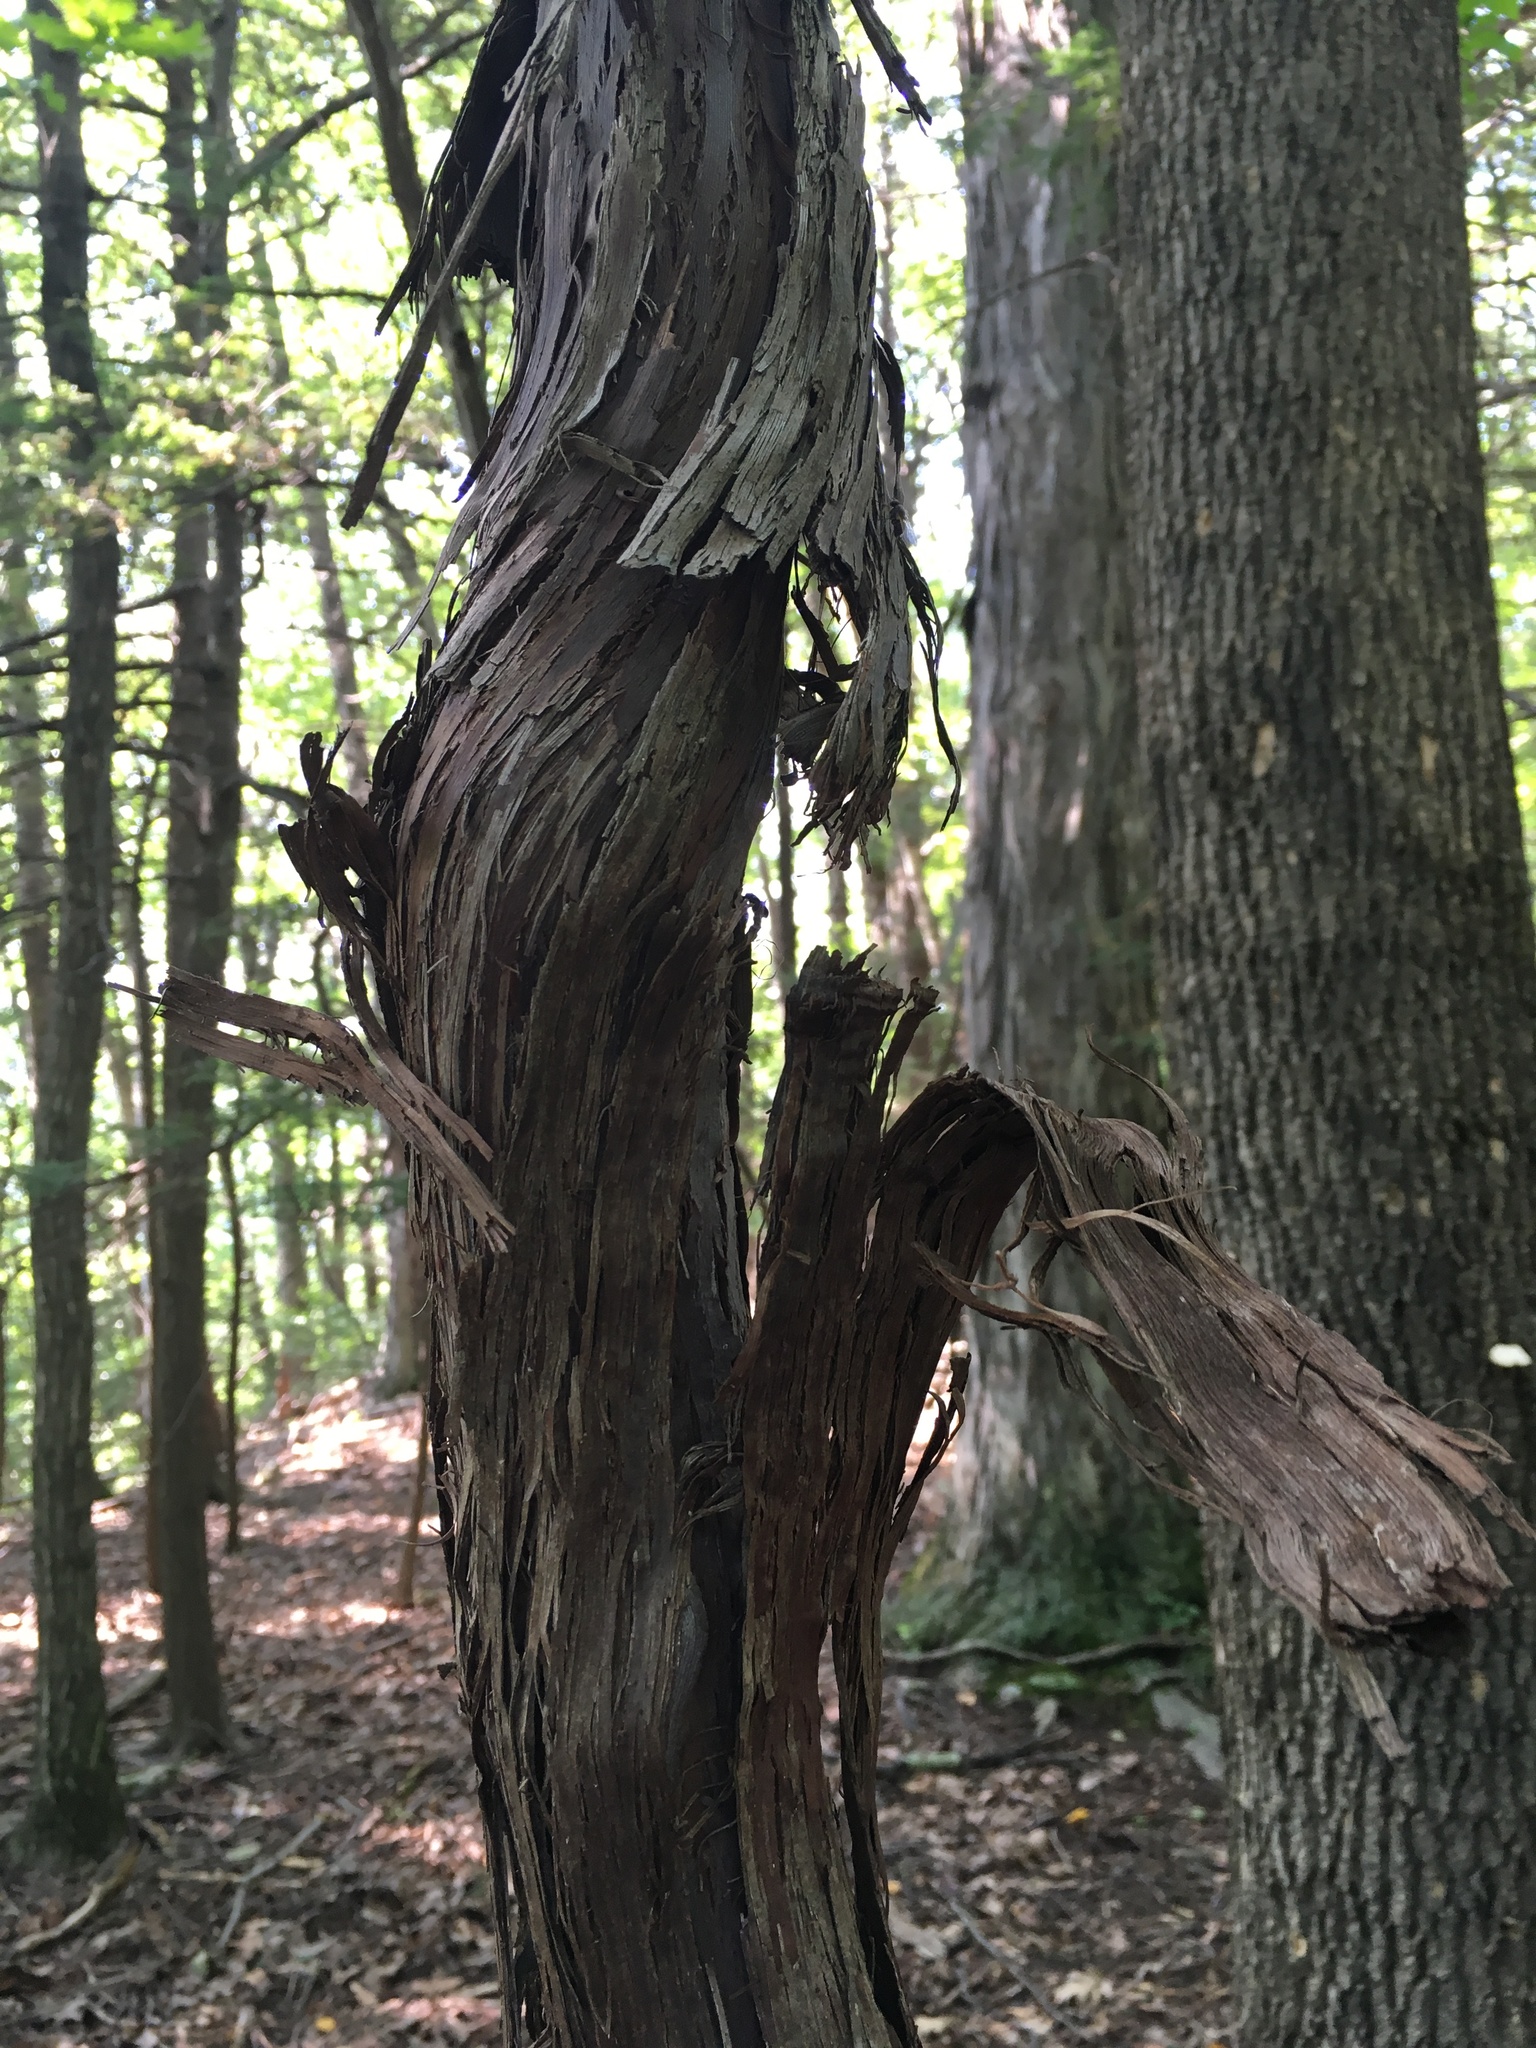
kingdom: Plantae
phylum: Tracheophyta
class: Magnoliopsida
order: Vitales
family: Vitaceae
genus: Vitis
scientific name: Vitis
